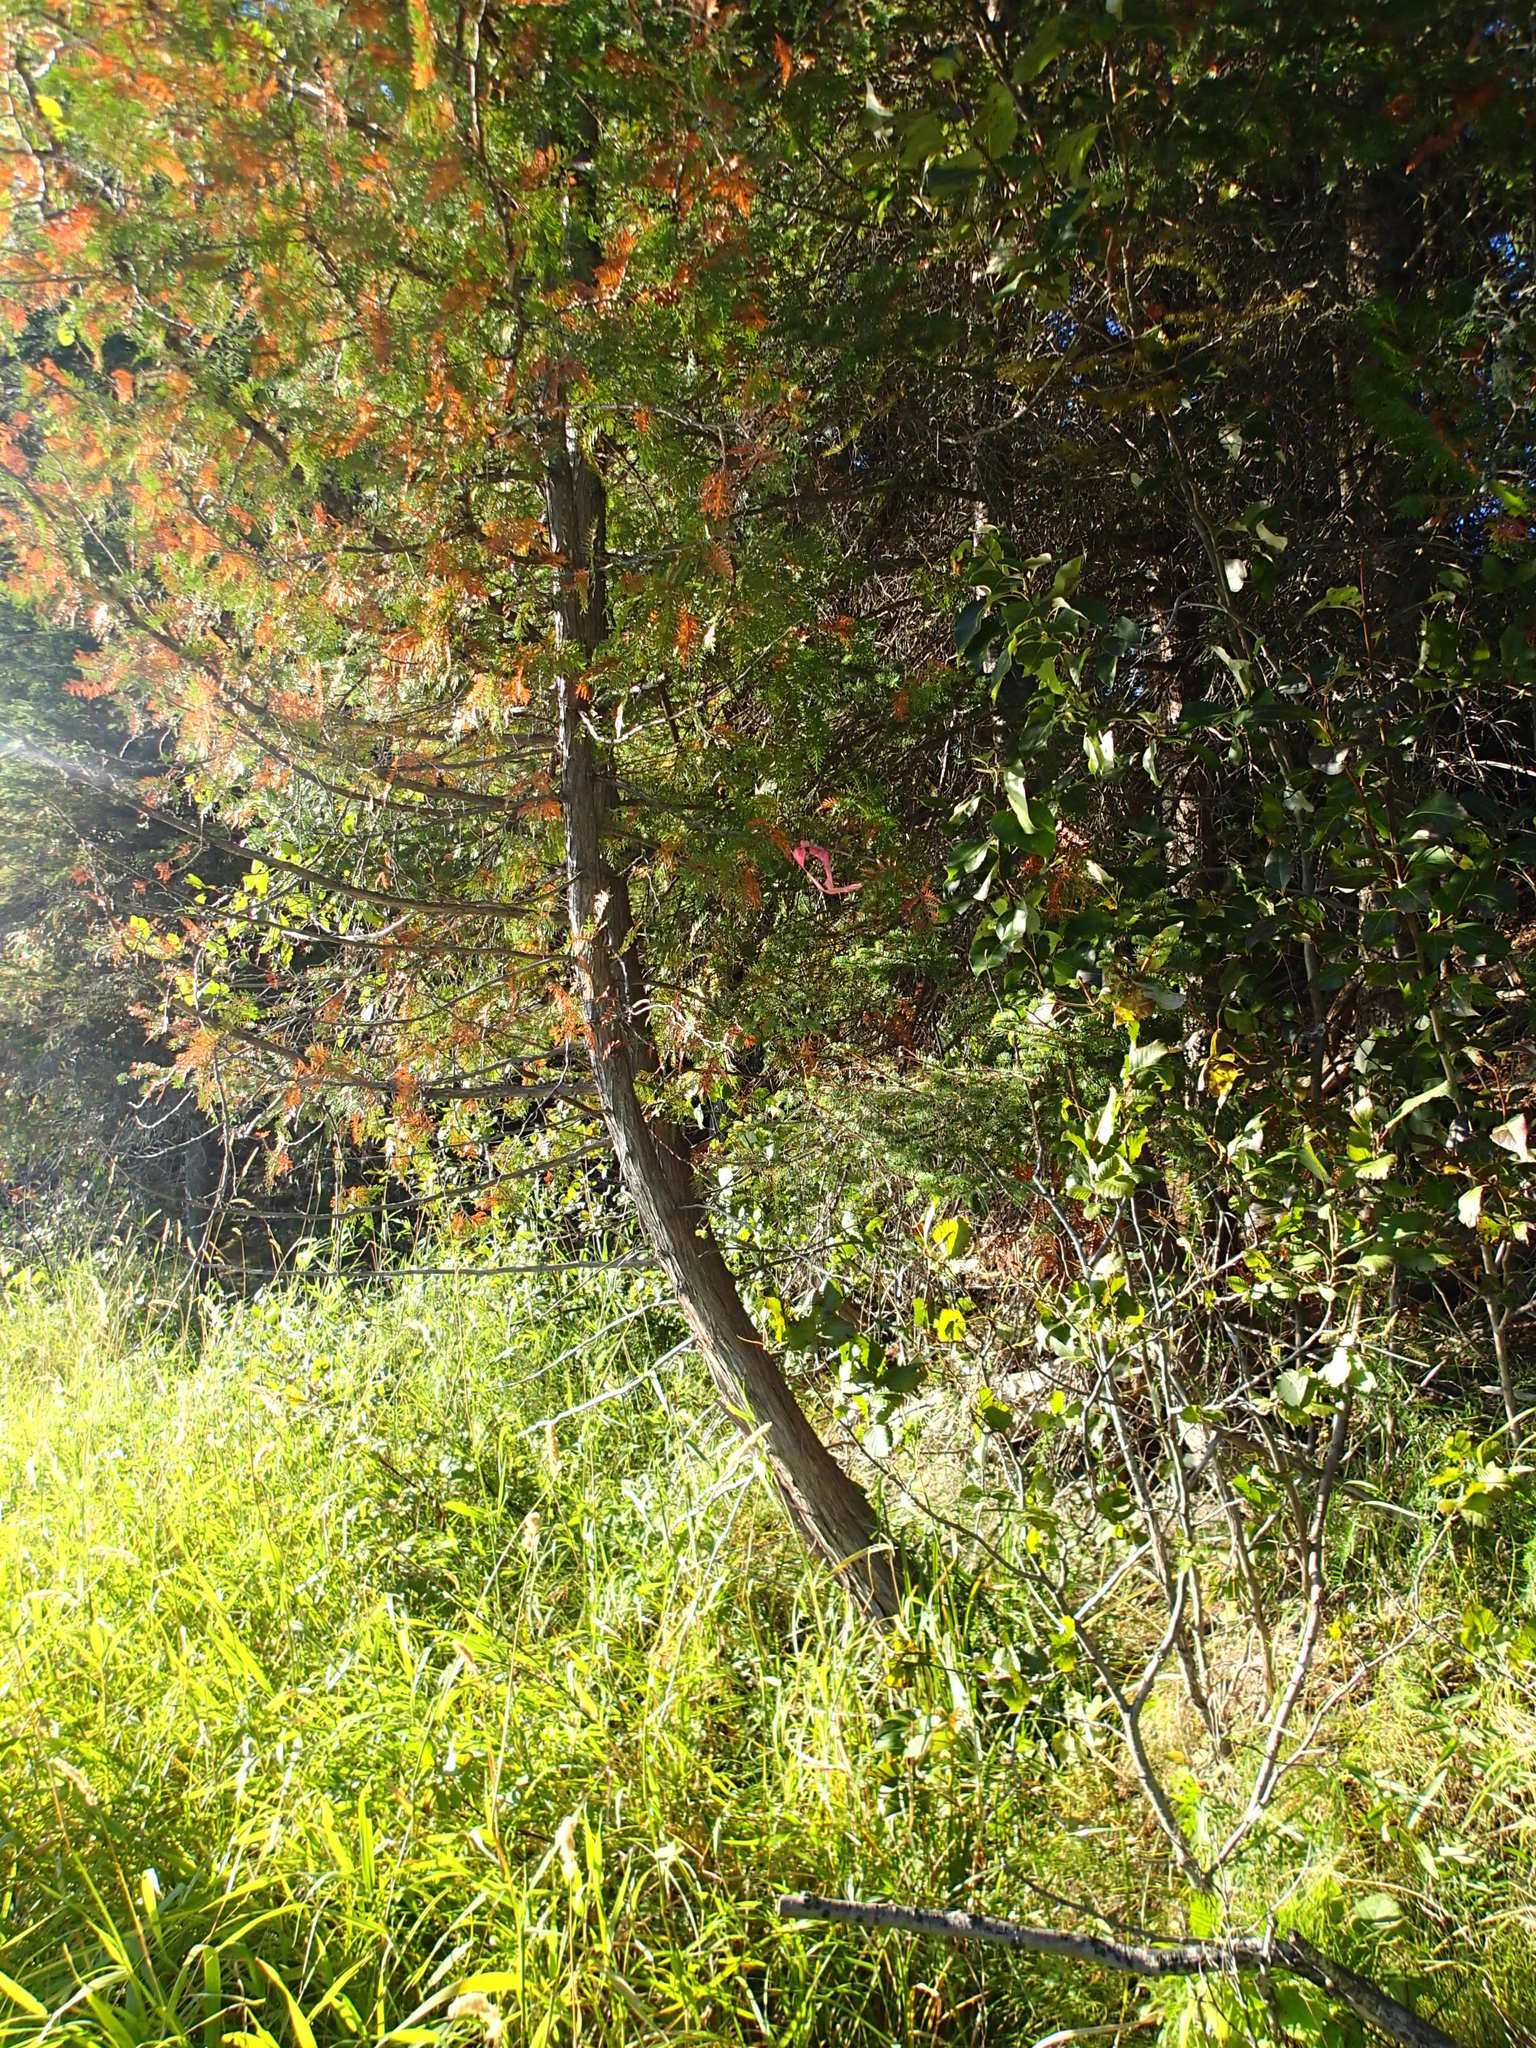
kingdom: Plantae
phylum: Tracheophyta
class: Pinopsida
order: Pinales
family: Cupressaceae
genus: Thuja
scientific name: Thuja occidentalis
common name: Northern white-cedar
